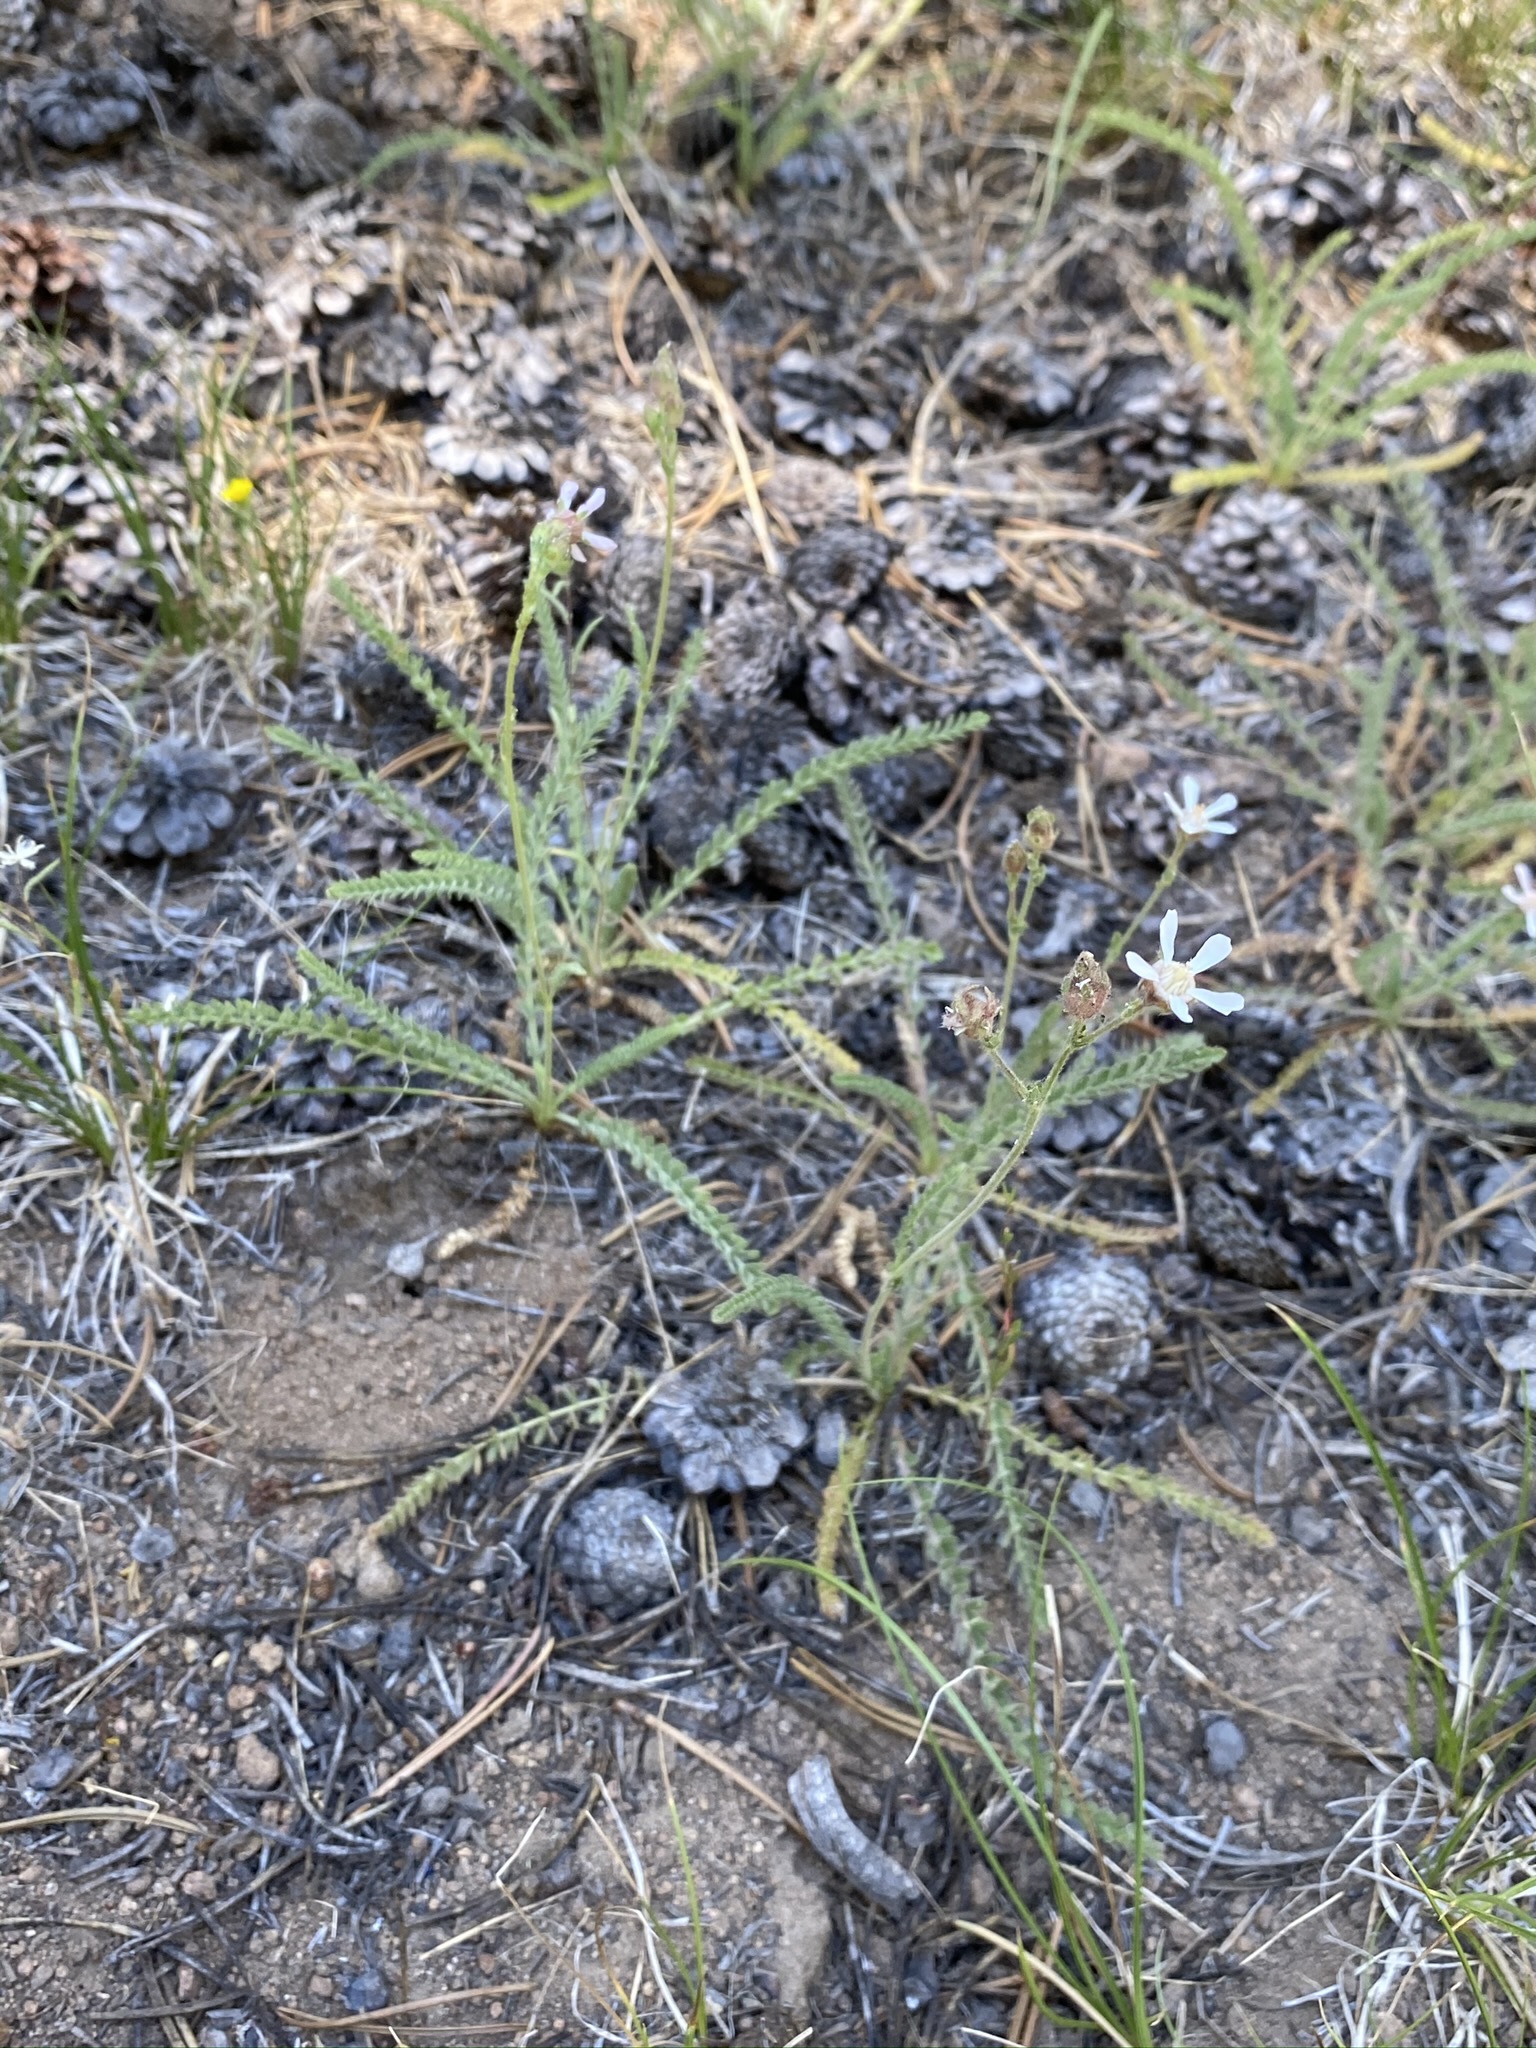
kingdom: Plantae
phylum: Tracheophyta
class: Magnoliopsida
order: Rosales
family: Rosaceae
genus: Potentilla
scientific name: Potentilla purpurascens
